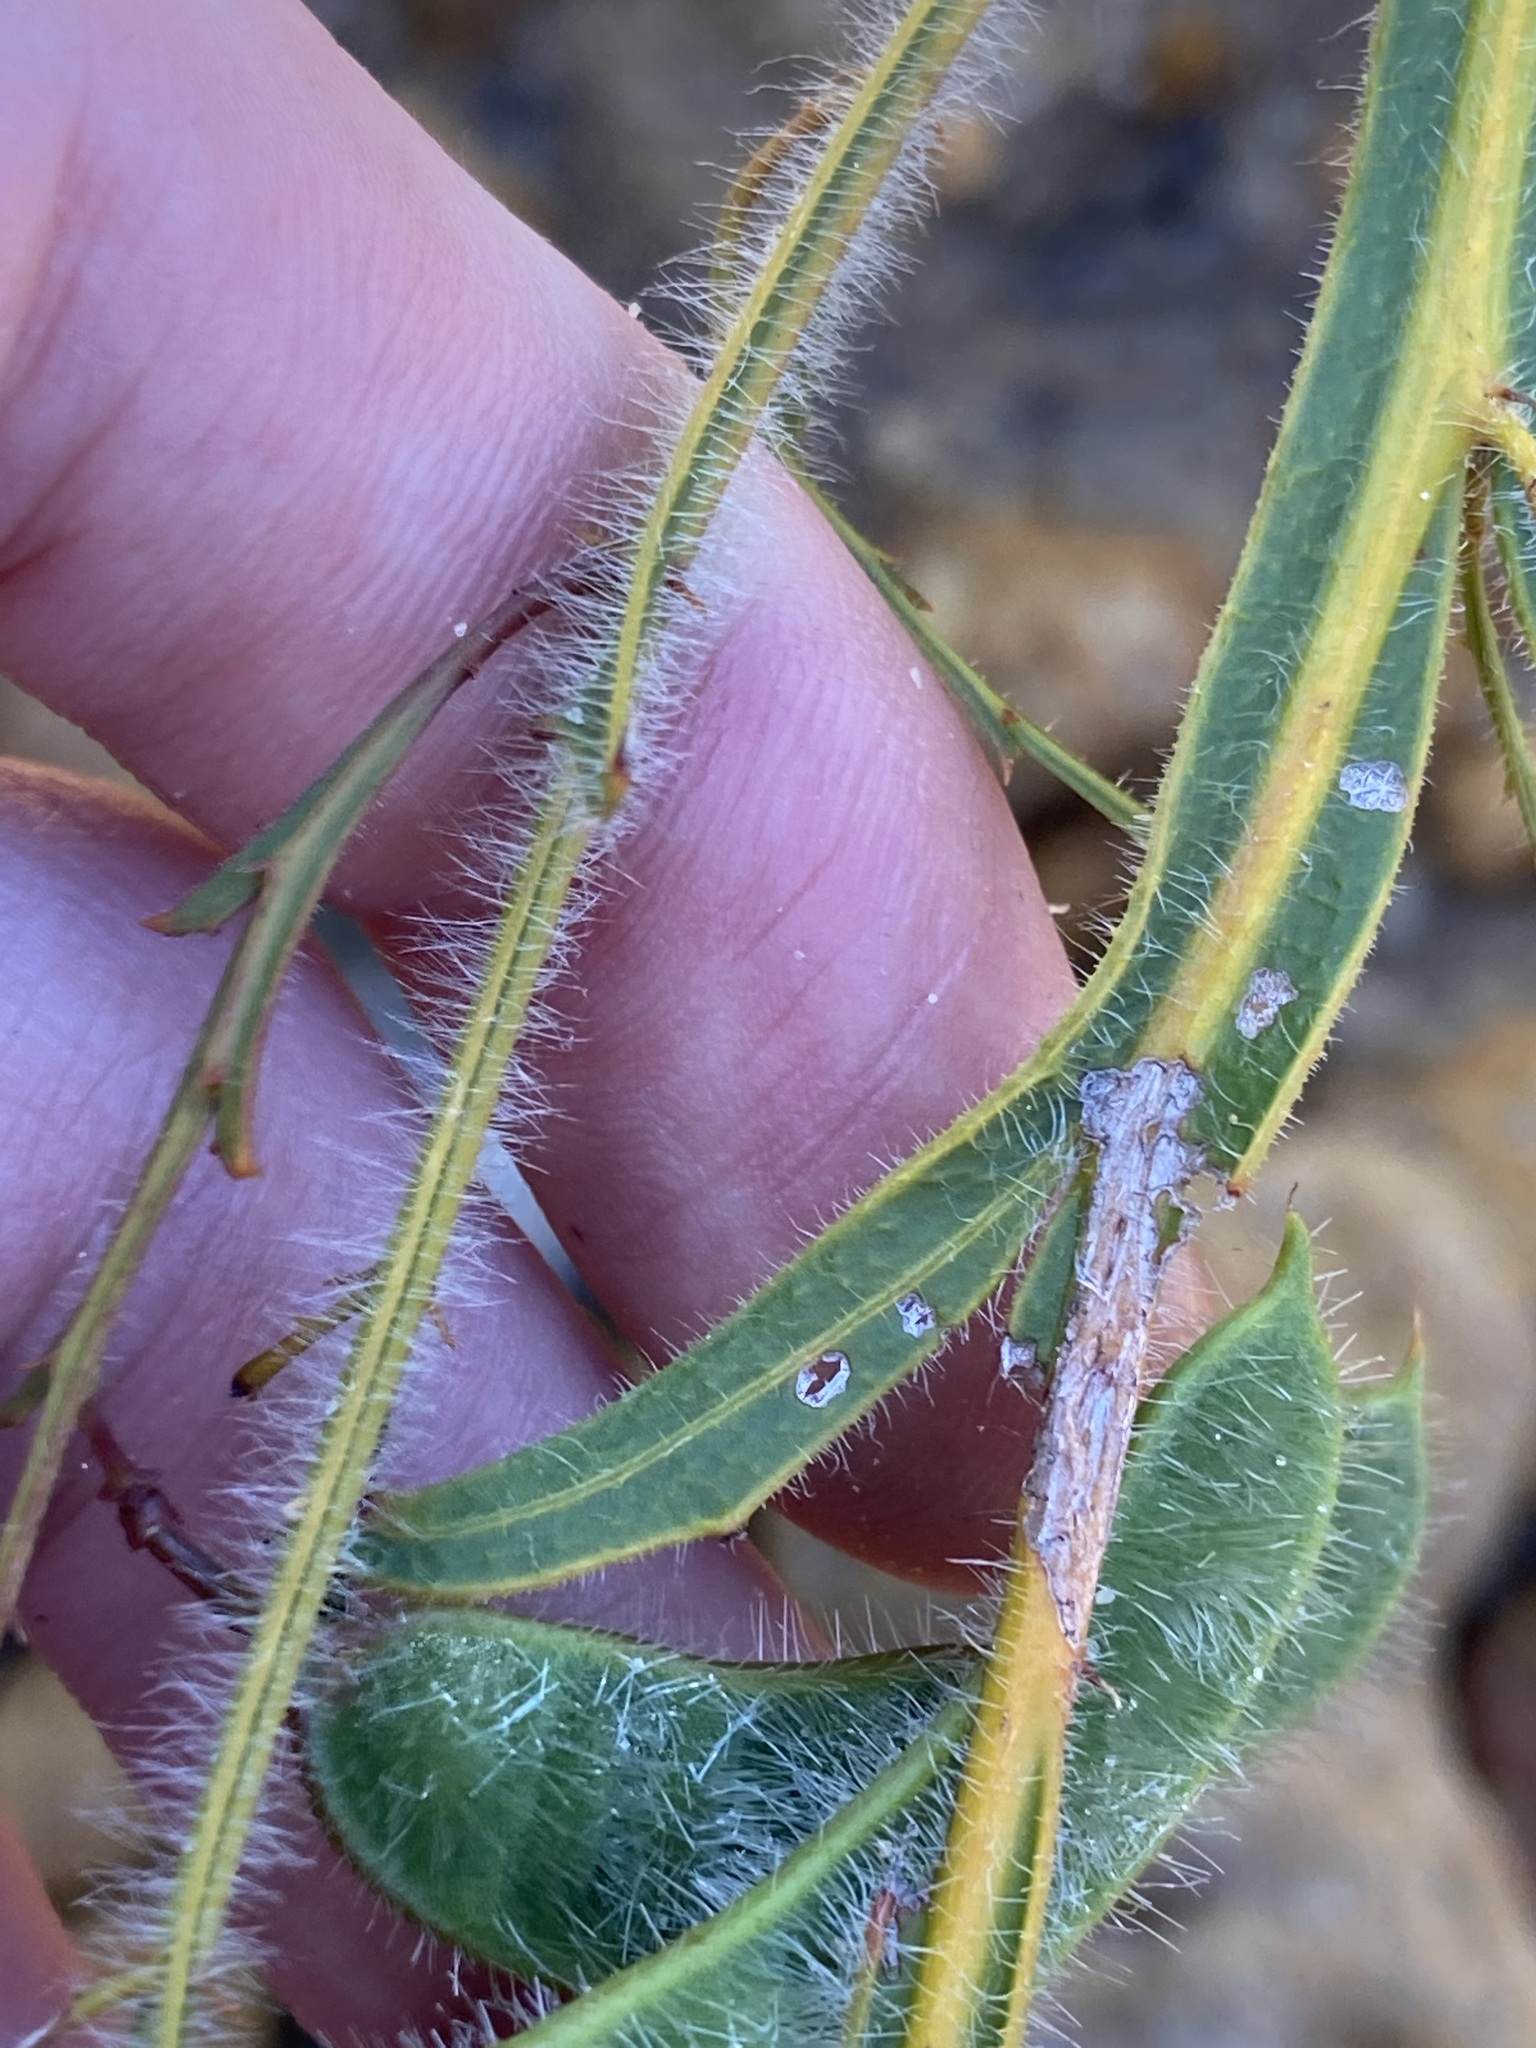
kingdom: Plantae
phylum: Tracheophyta
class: Magnoliopsida
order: Fabales
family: Fabaceae
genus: Acacia
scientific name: Acacia alata
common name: Winged wattle
